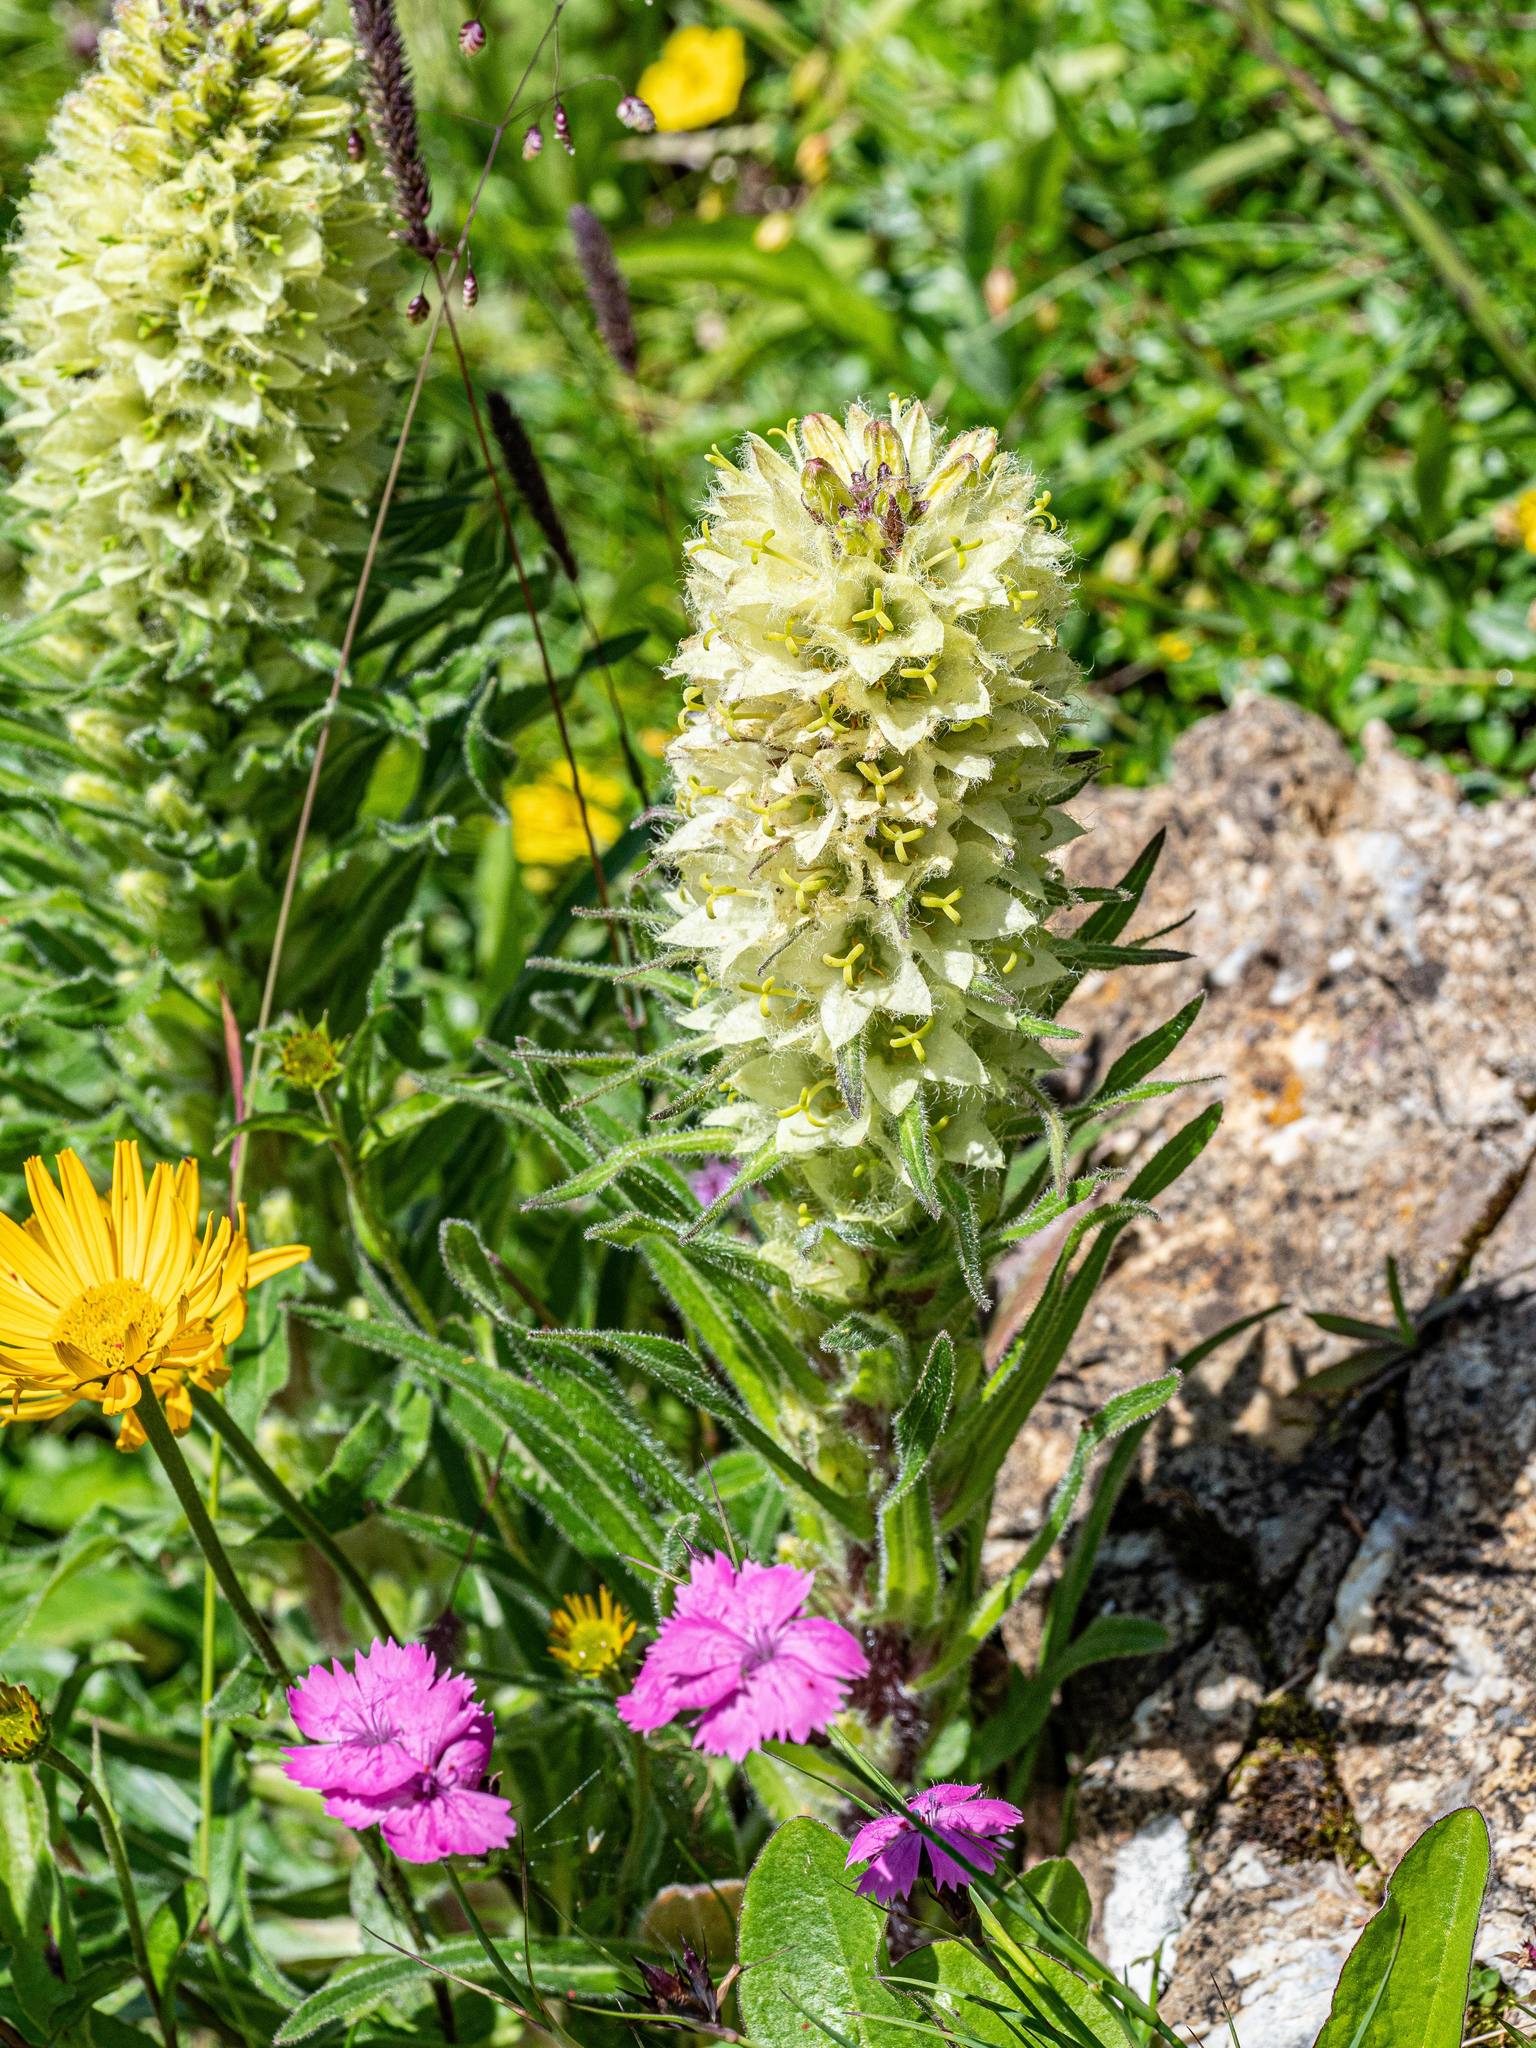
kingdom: Plantae
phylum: Tracheophyta
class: Magnoliopsida
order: Asterales
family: Campanulaceae
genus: Campanula
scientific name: Campanula thyrsoides
